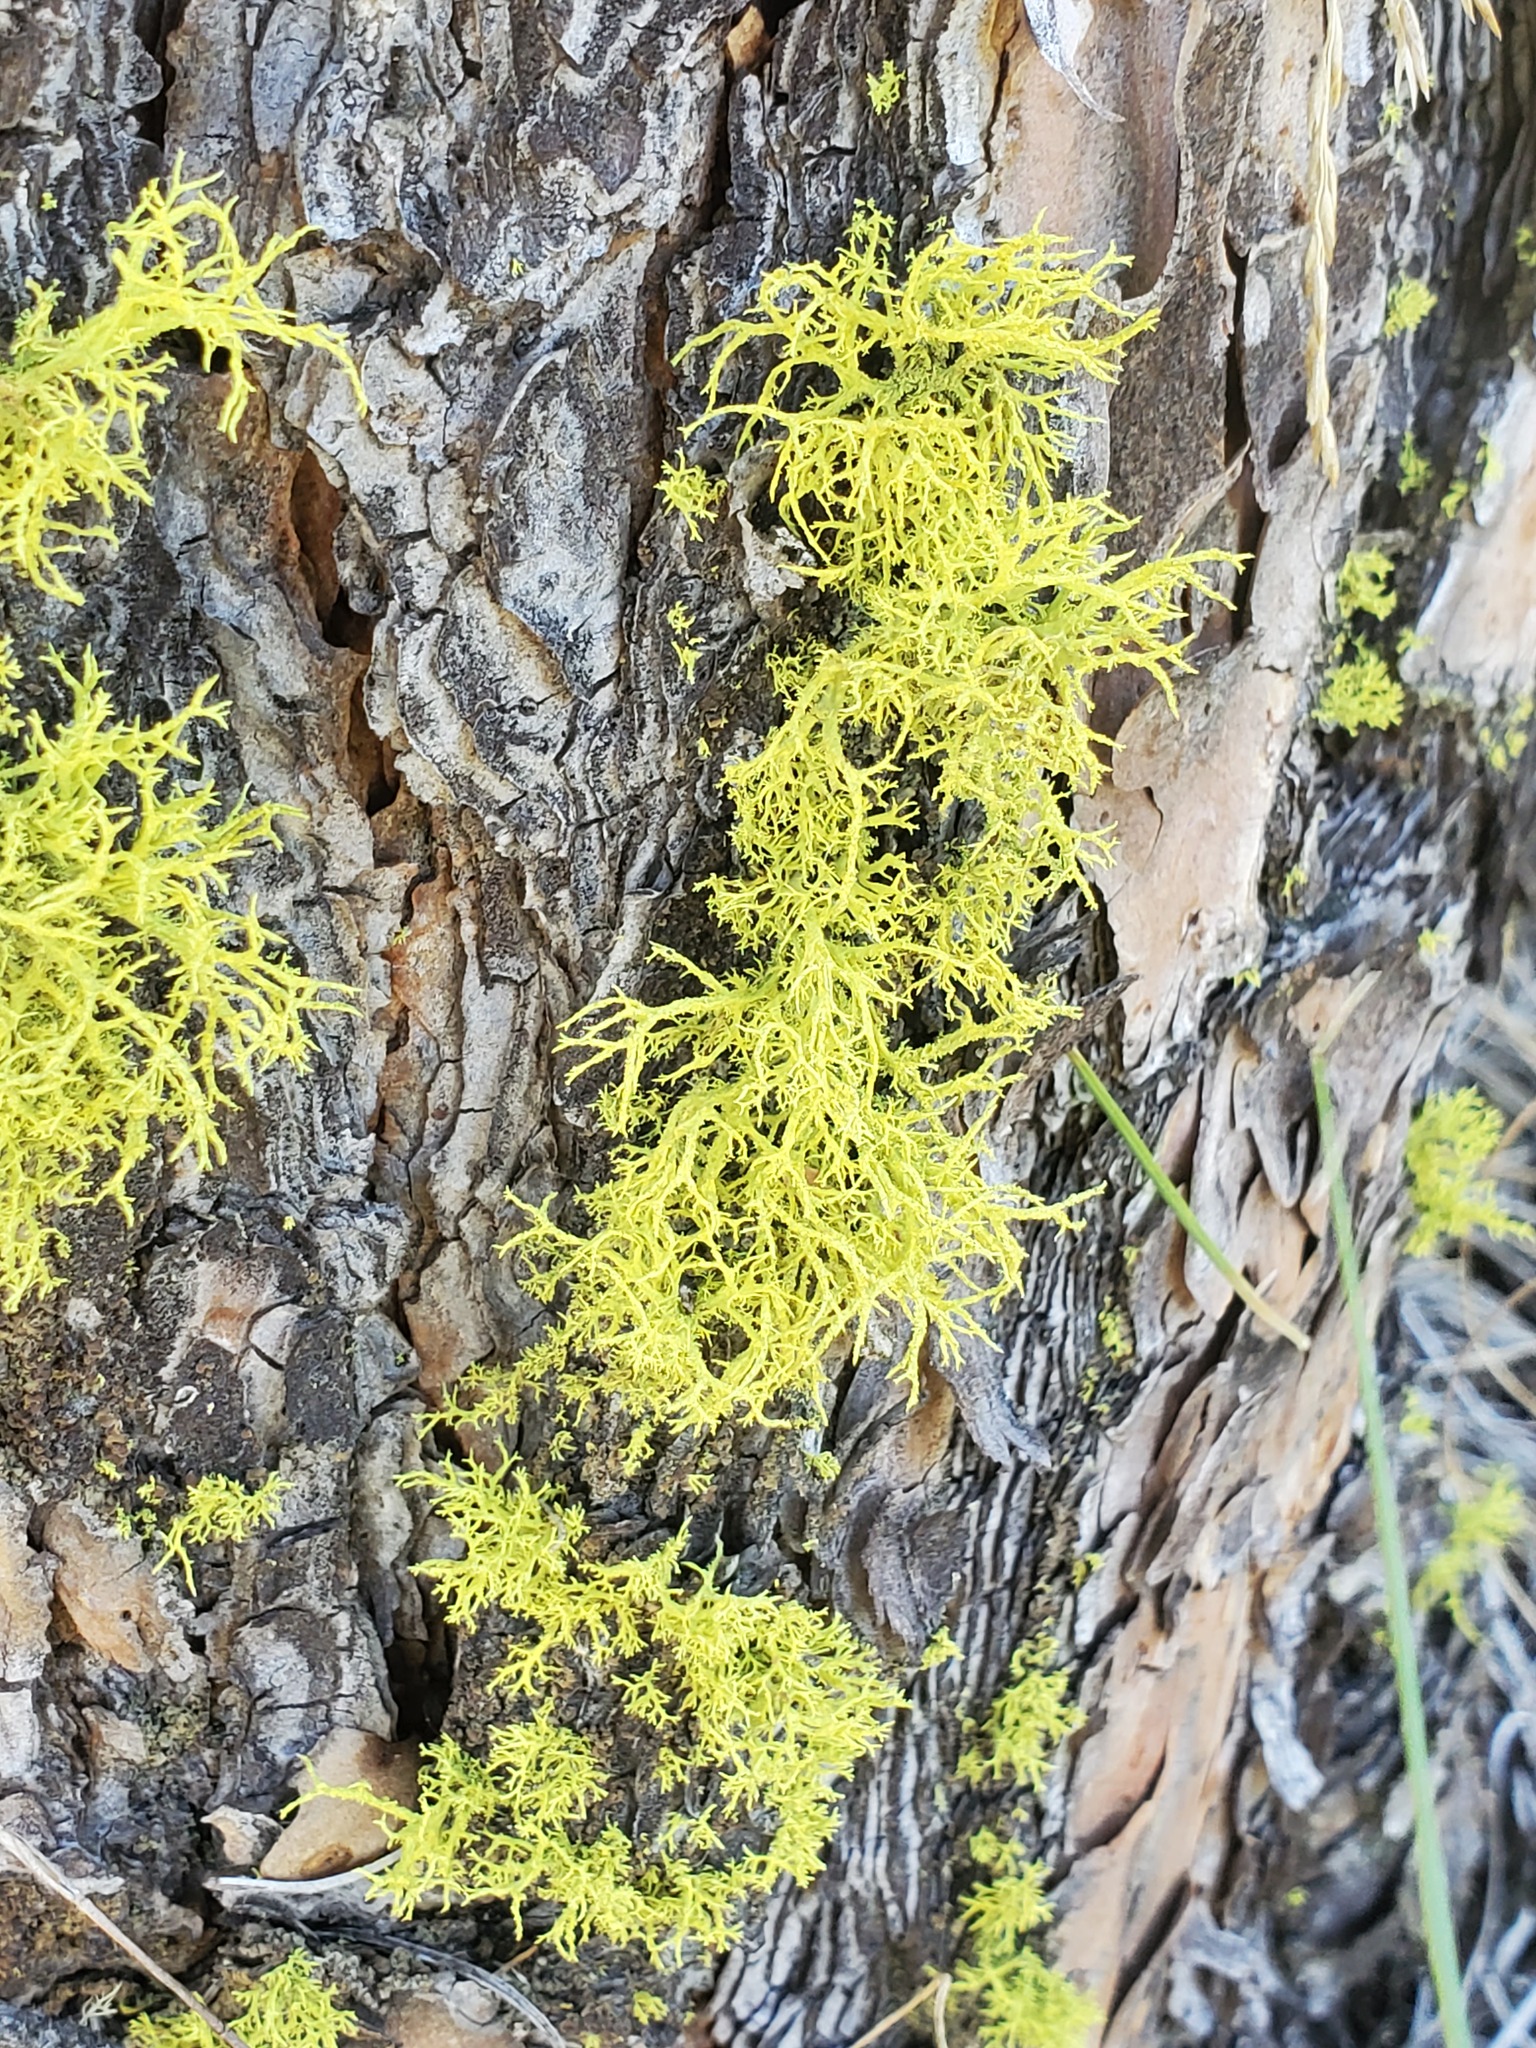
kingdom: Fungi
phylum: Ascomycota
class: Lecanoromycetes
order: Lecanorales
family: Parmeliaceae
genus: Letharia
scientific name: Letharia vulpina
